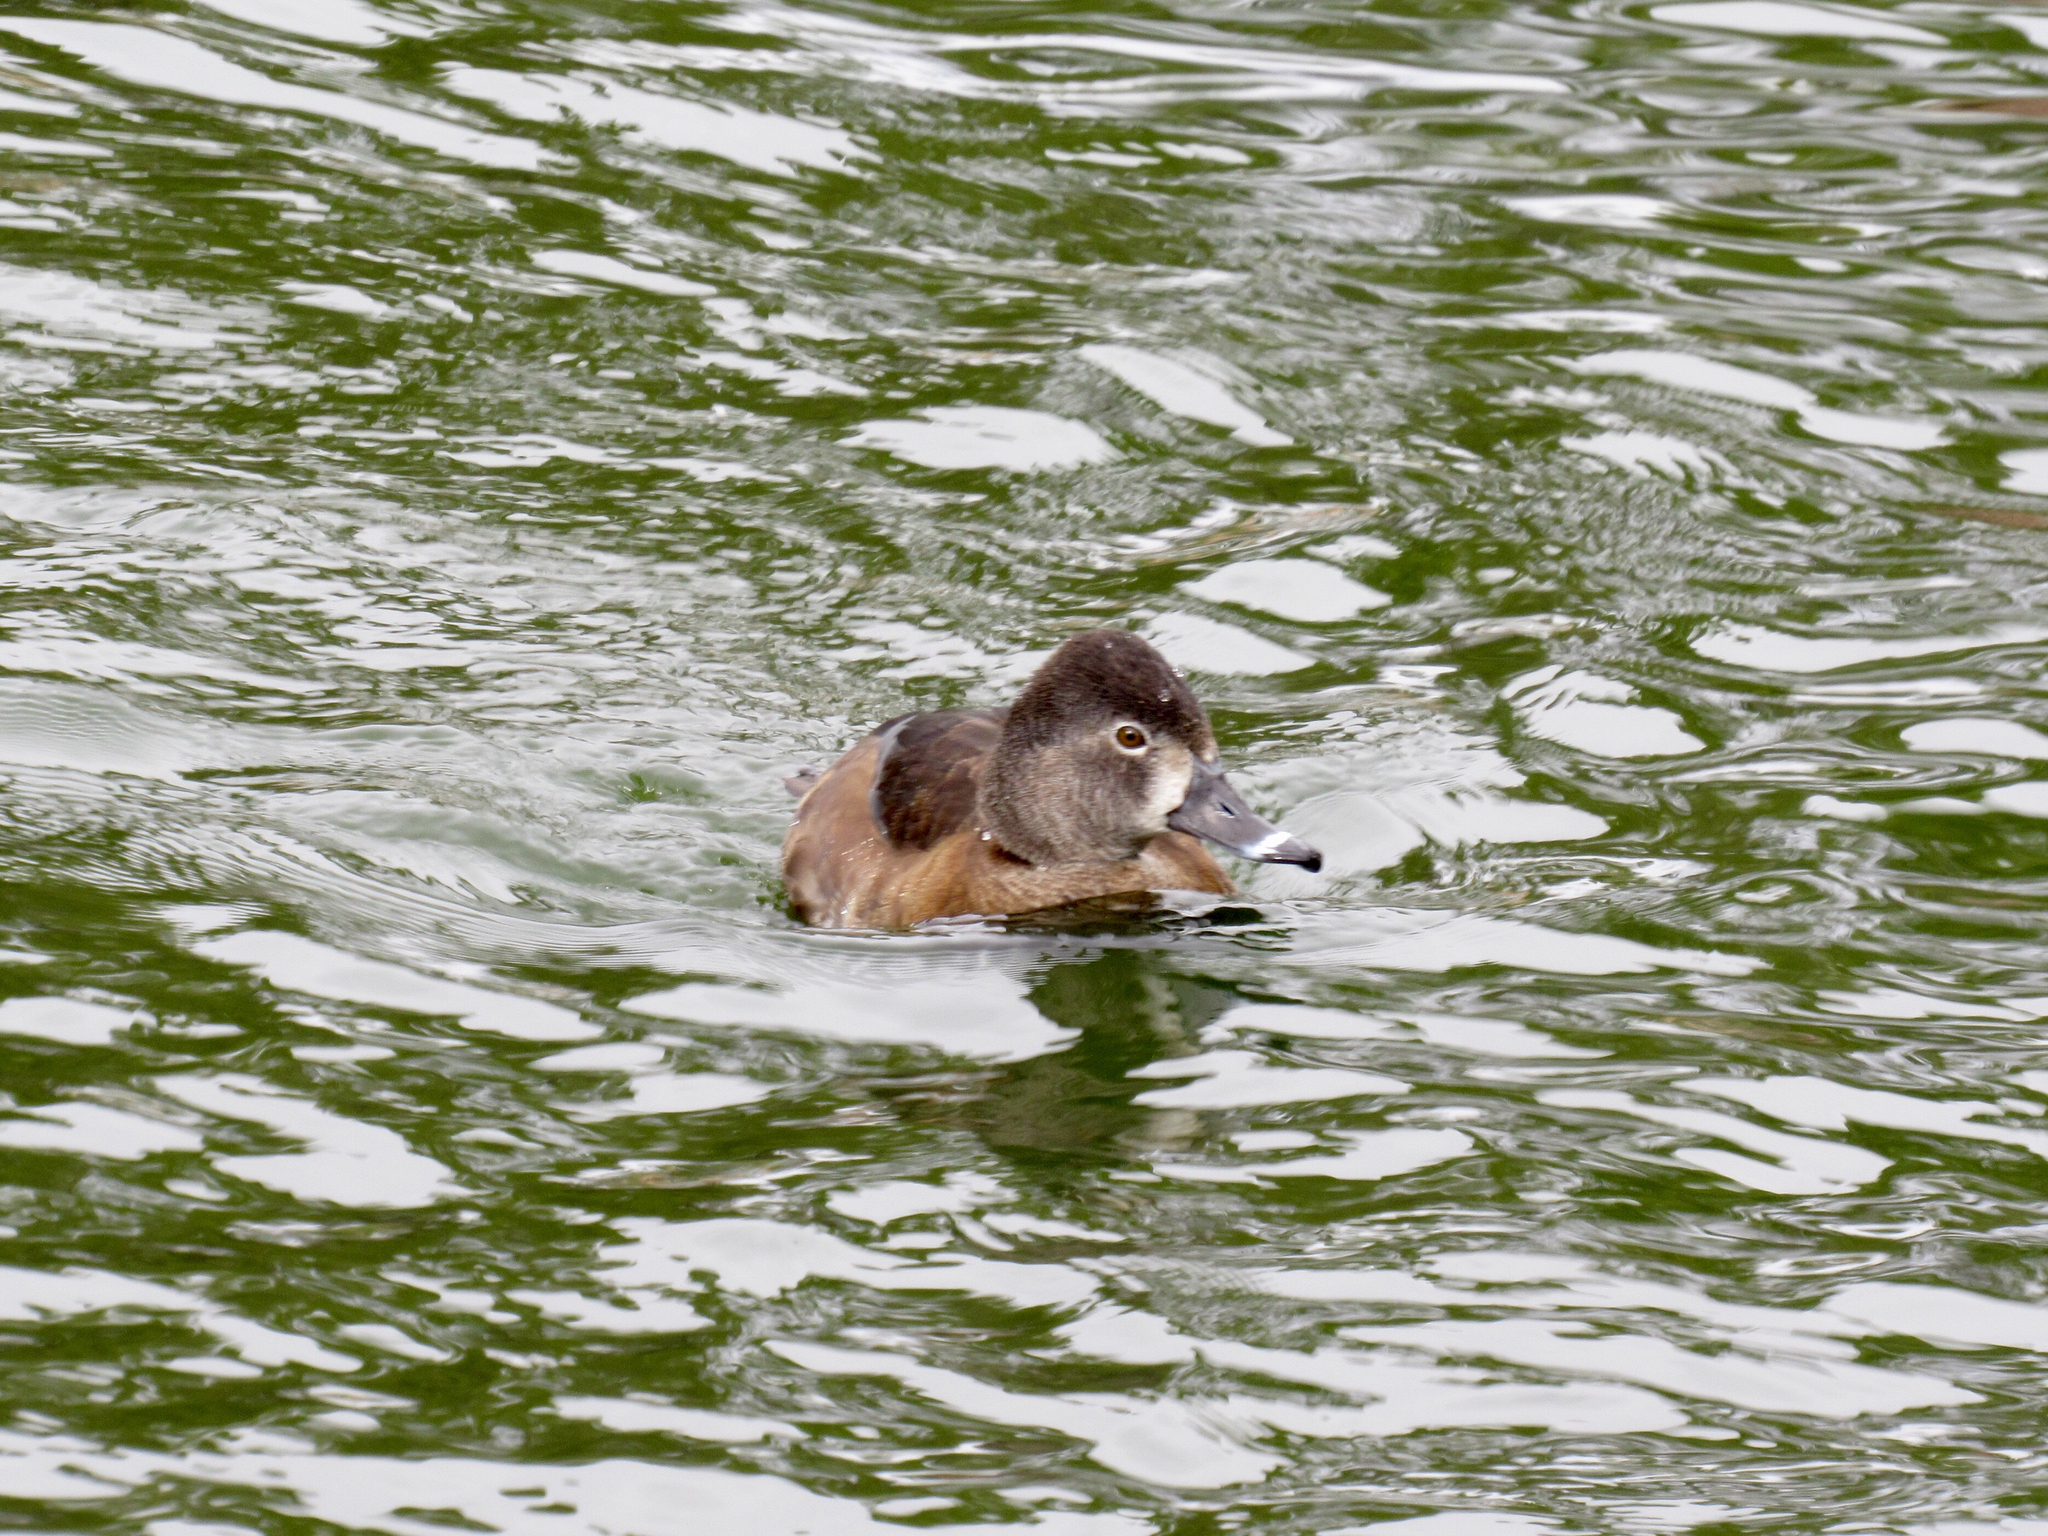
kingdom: Animalia
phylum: Chordata
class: Aves
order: Anseriformes
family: Anatidae
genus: Aythya
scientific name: Aythya collaris
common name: Ring-necked duck
